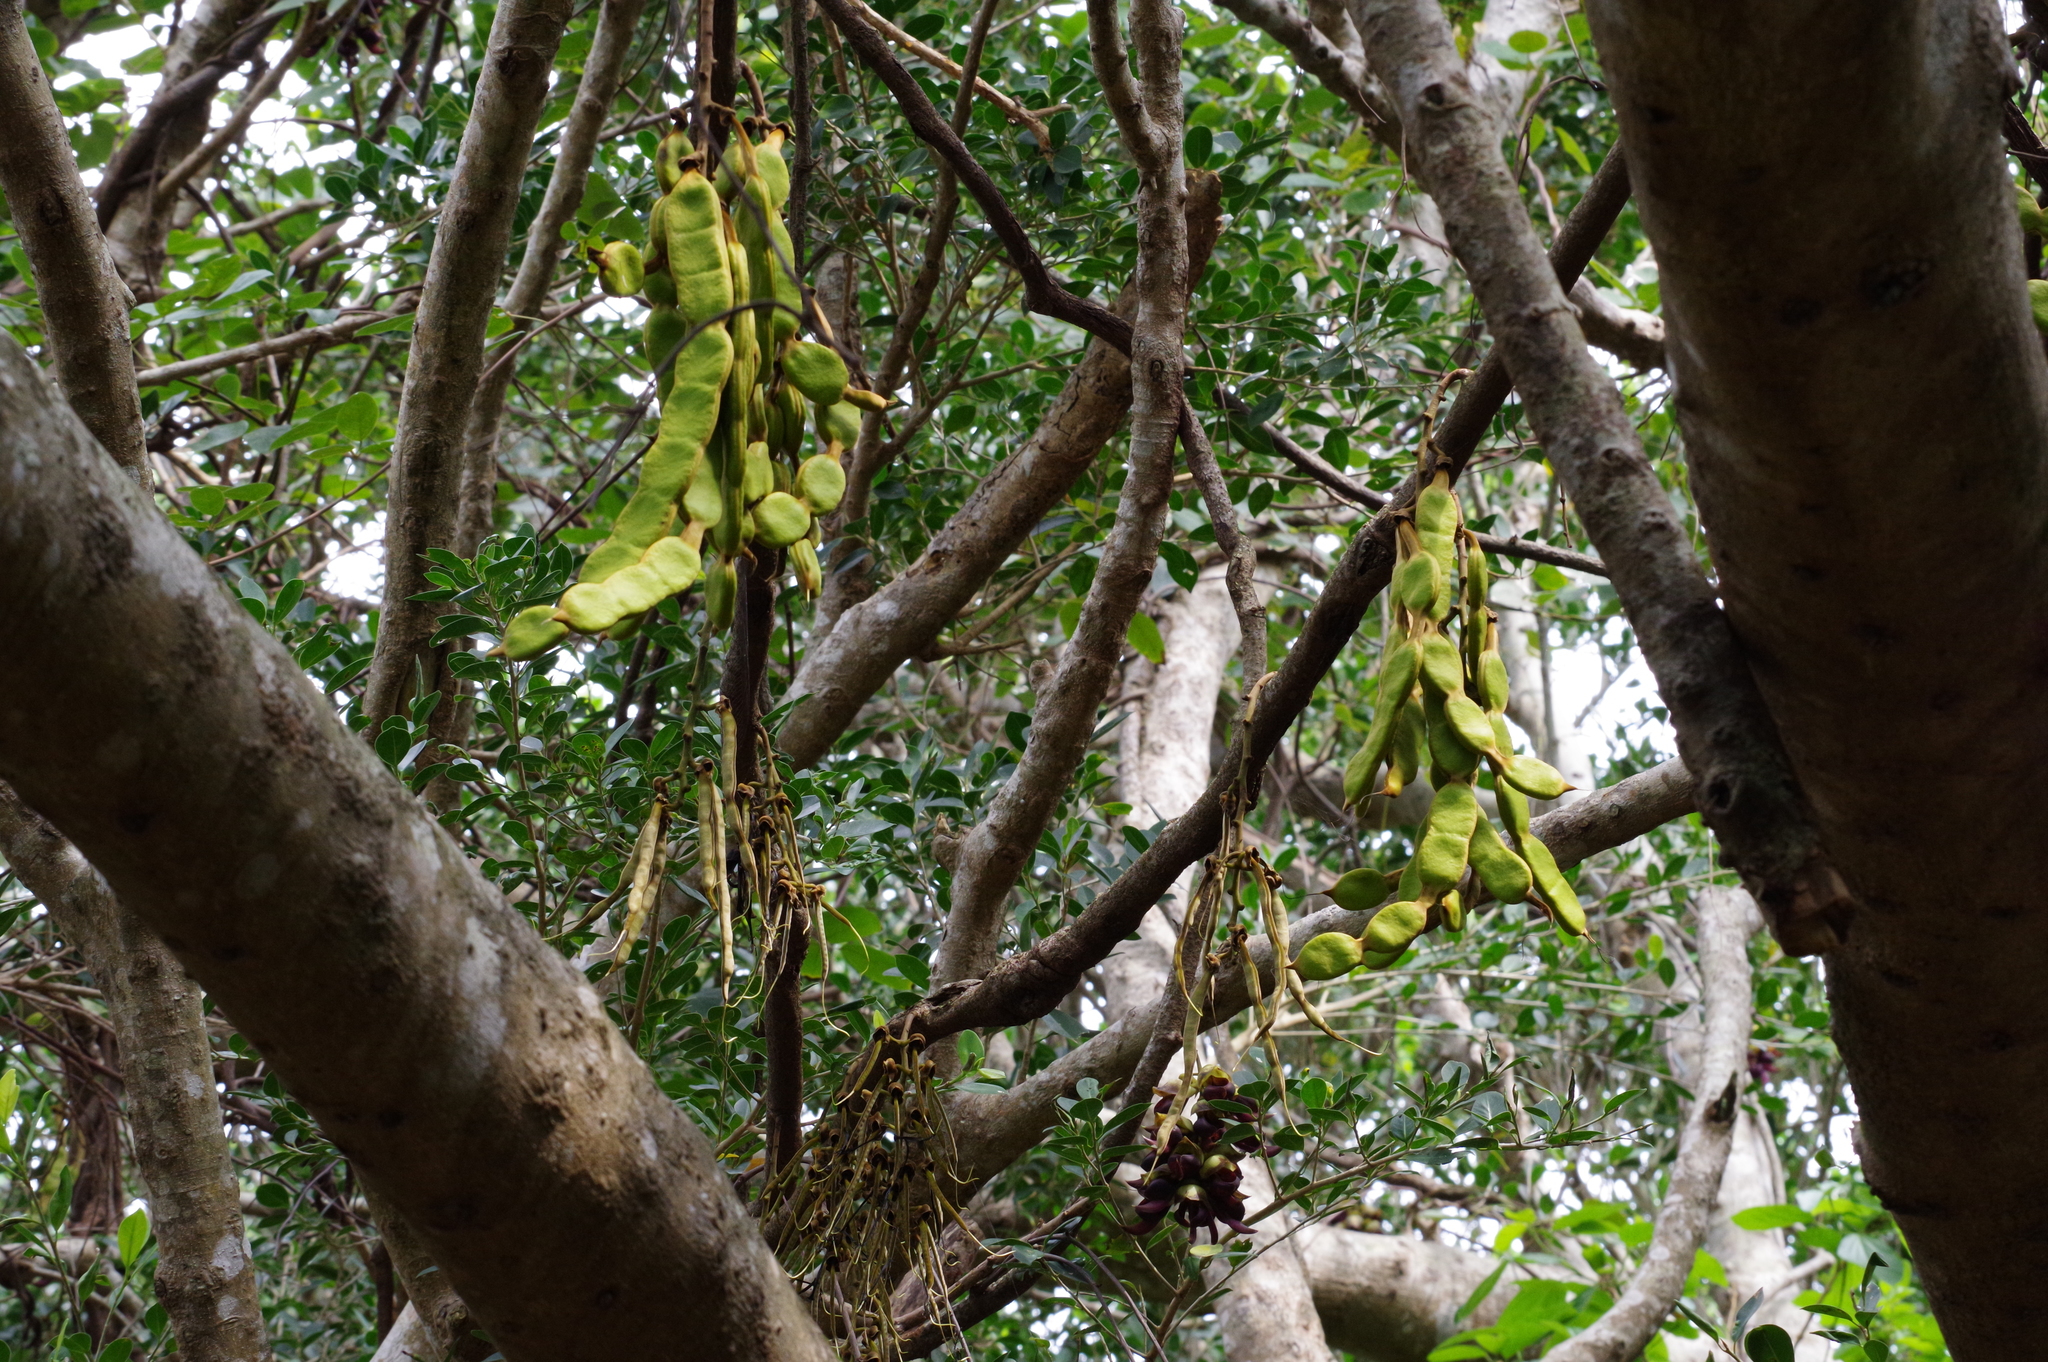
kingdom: Plantae
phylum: Tracheophyta
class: Magnoliopsida
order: Fabales
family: Fabaceae
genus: Mucuna
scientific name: Mucuna macrocarpa
